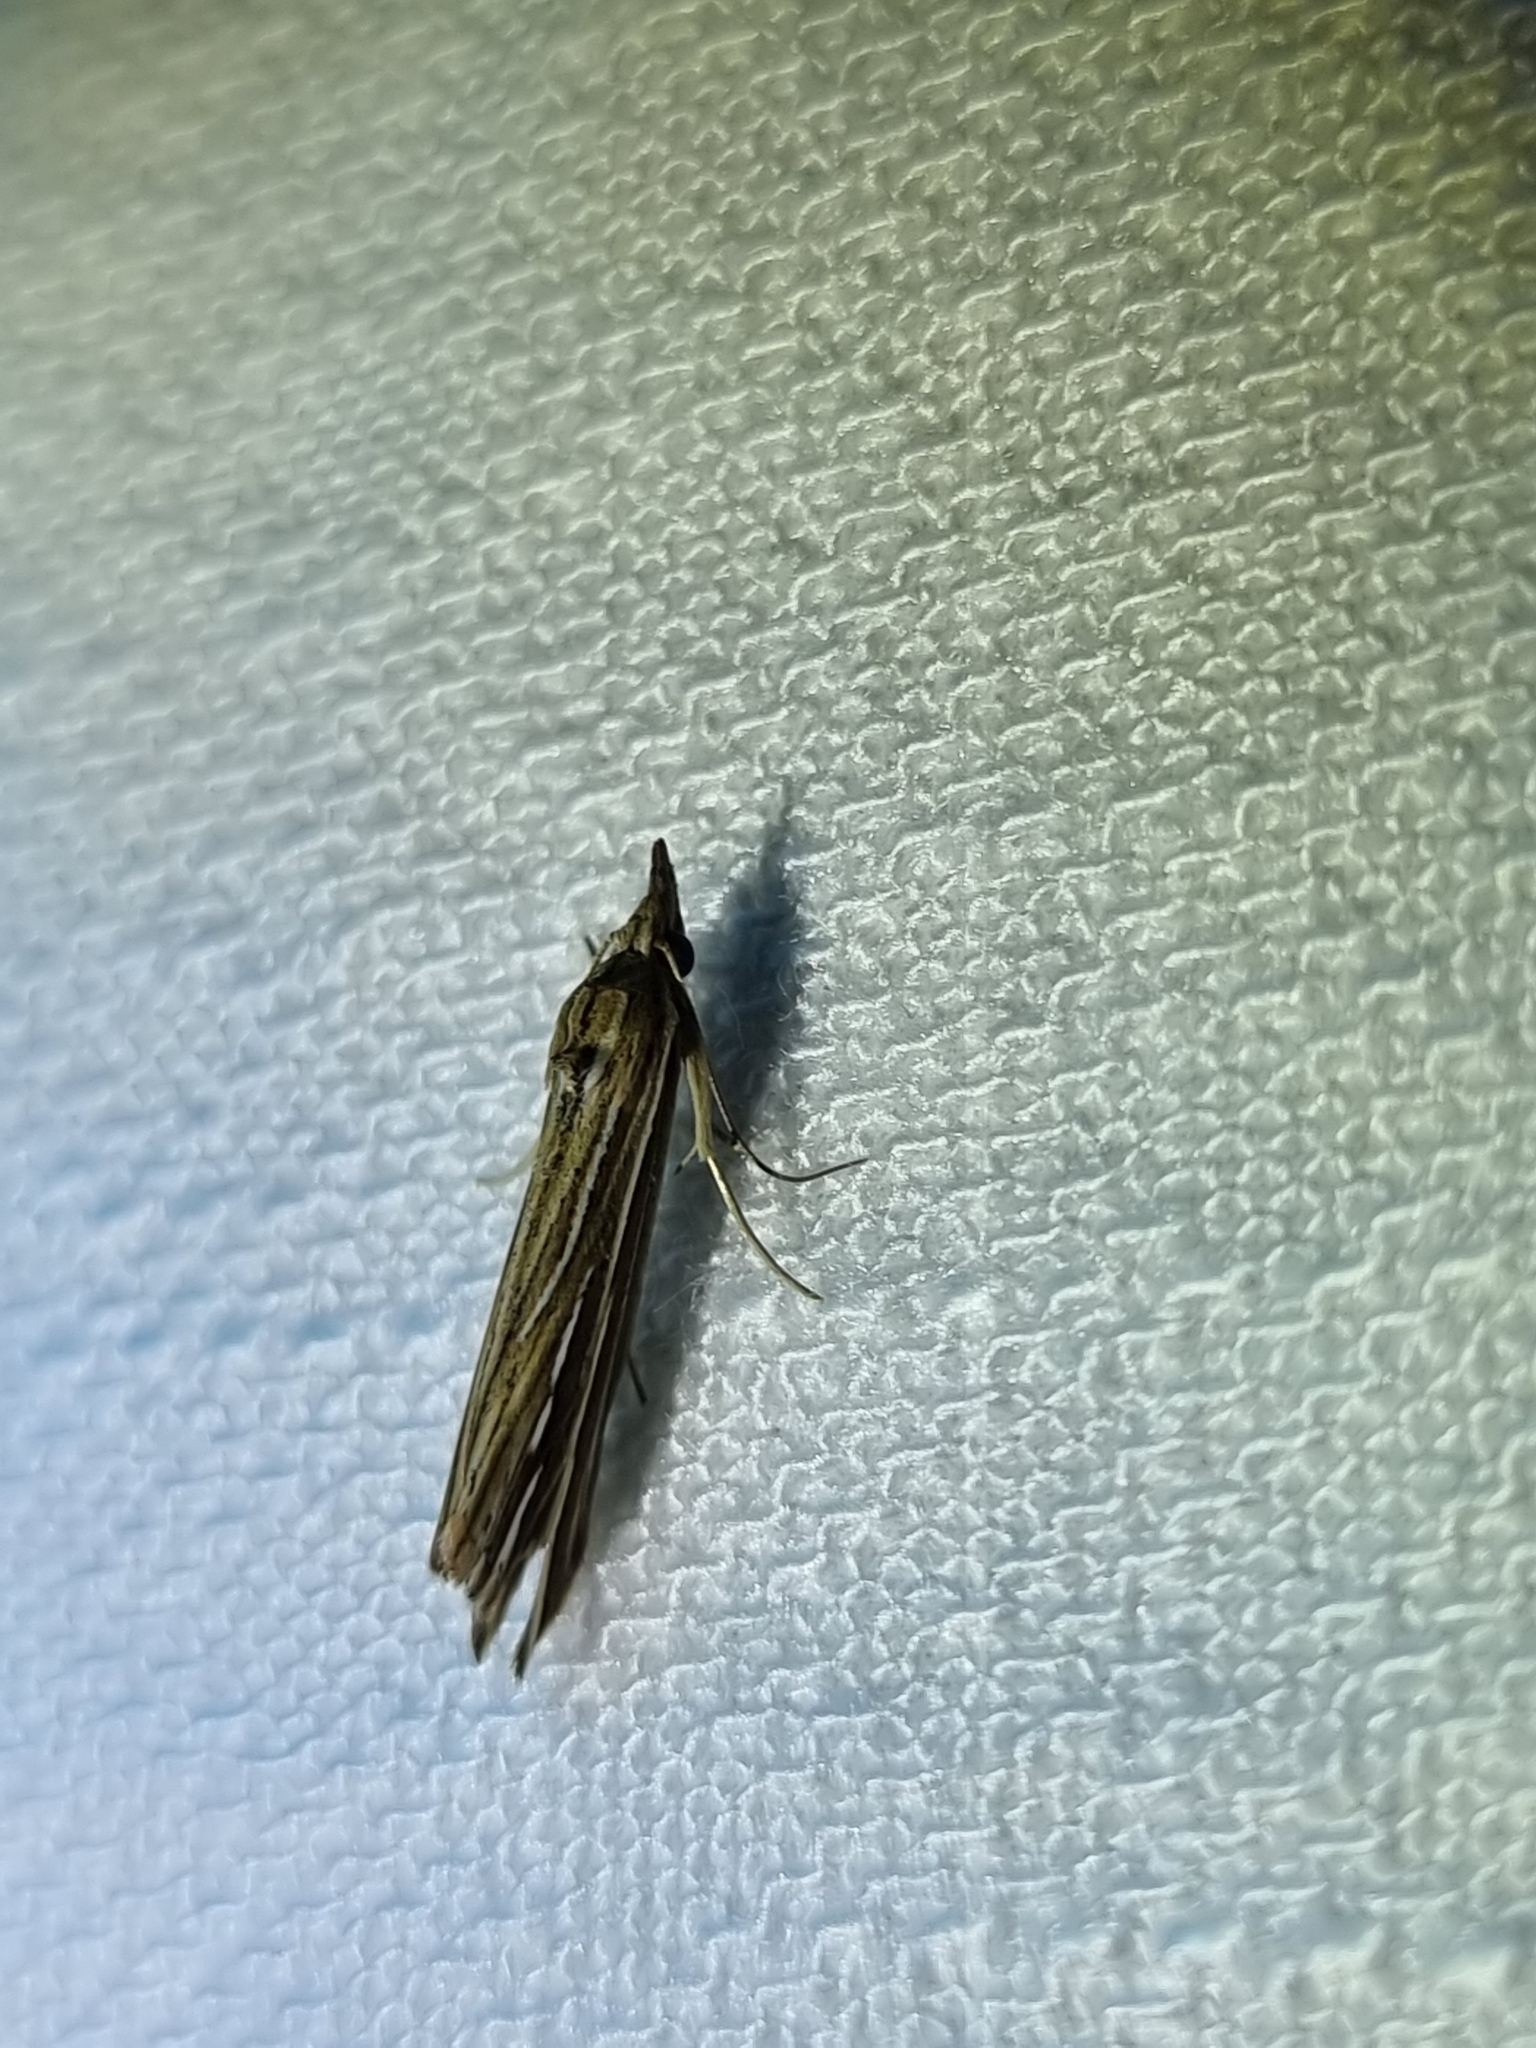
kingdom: Animalia
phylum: Arthropoda
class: Insecta
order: Lepidoptera
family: Erebidae
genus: Meyrickella
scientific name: Meyrickella ruptellus
